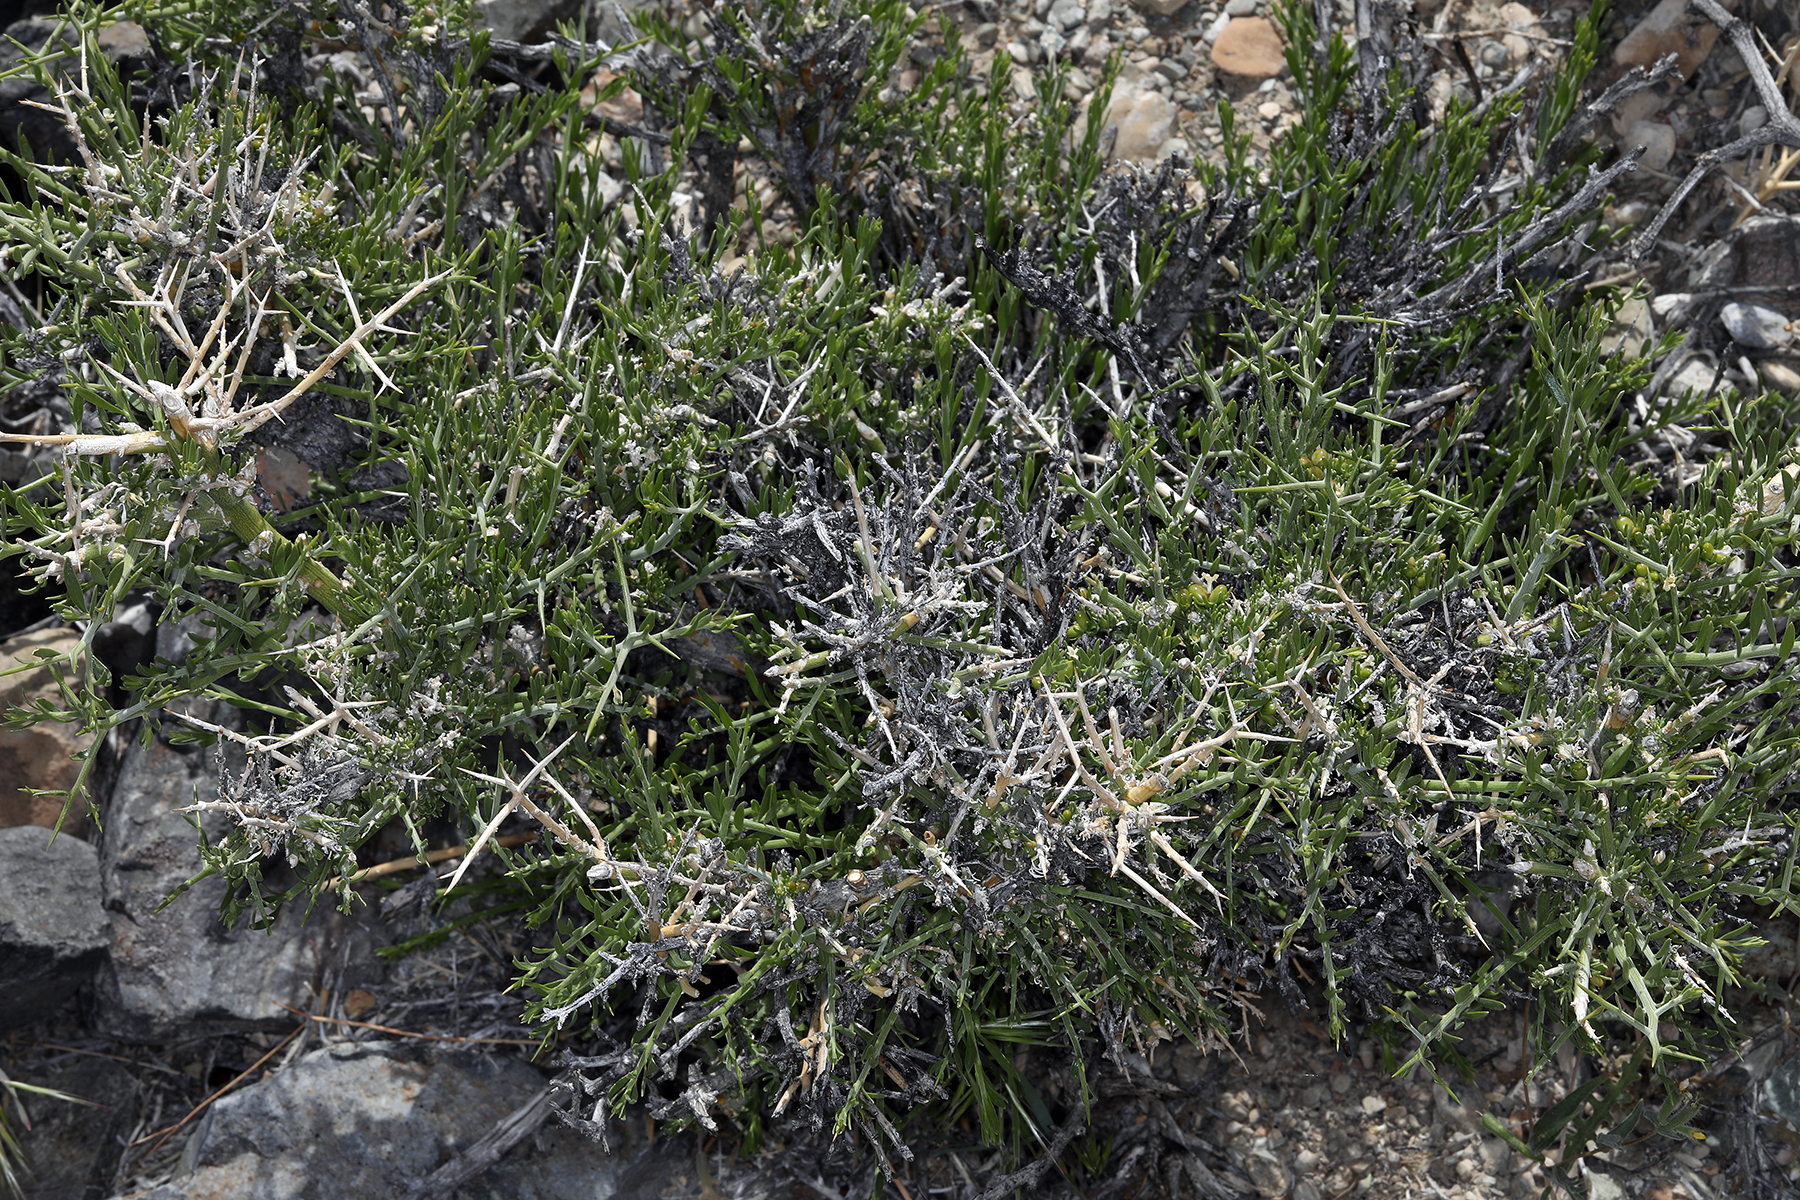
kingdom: Plantae
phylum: Tracheophyta
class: Magnoliopsida
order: Lamiales
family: Oleaceae
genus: Menodora
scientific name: Menodora spinescens
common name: Spiny menodora
